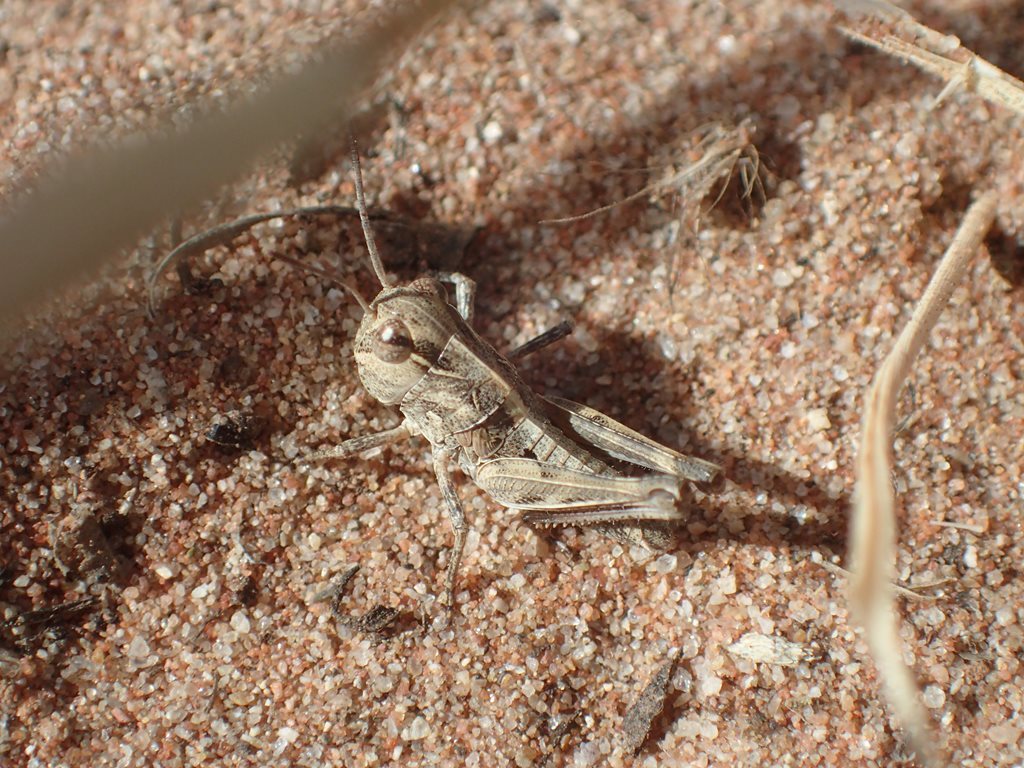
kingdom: Animalia
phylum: Arthropoda
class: Insecta
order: Orthoptera
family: Acrididae
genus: Oedaleus
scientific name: Oedaleus australis
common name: Eastern oedaleus
